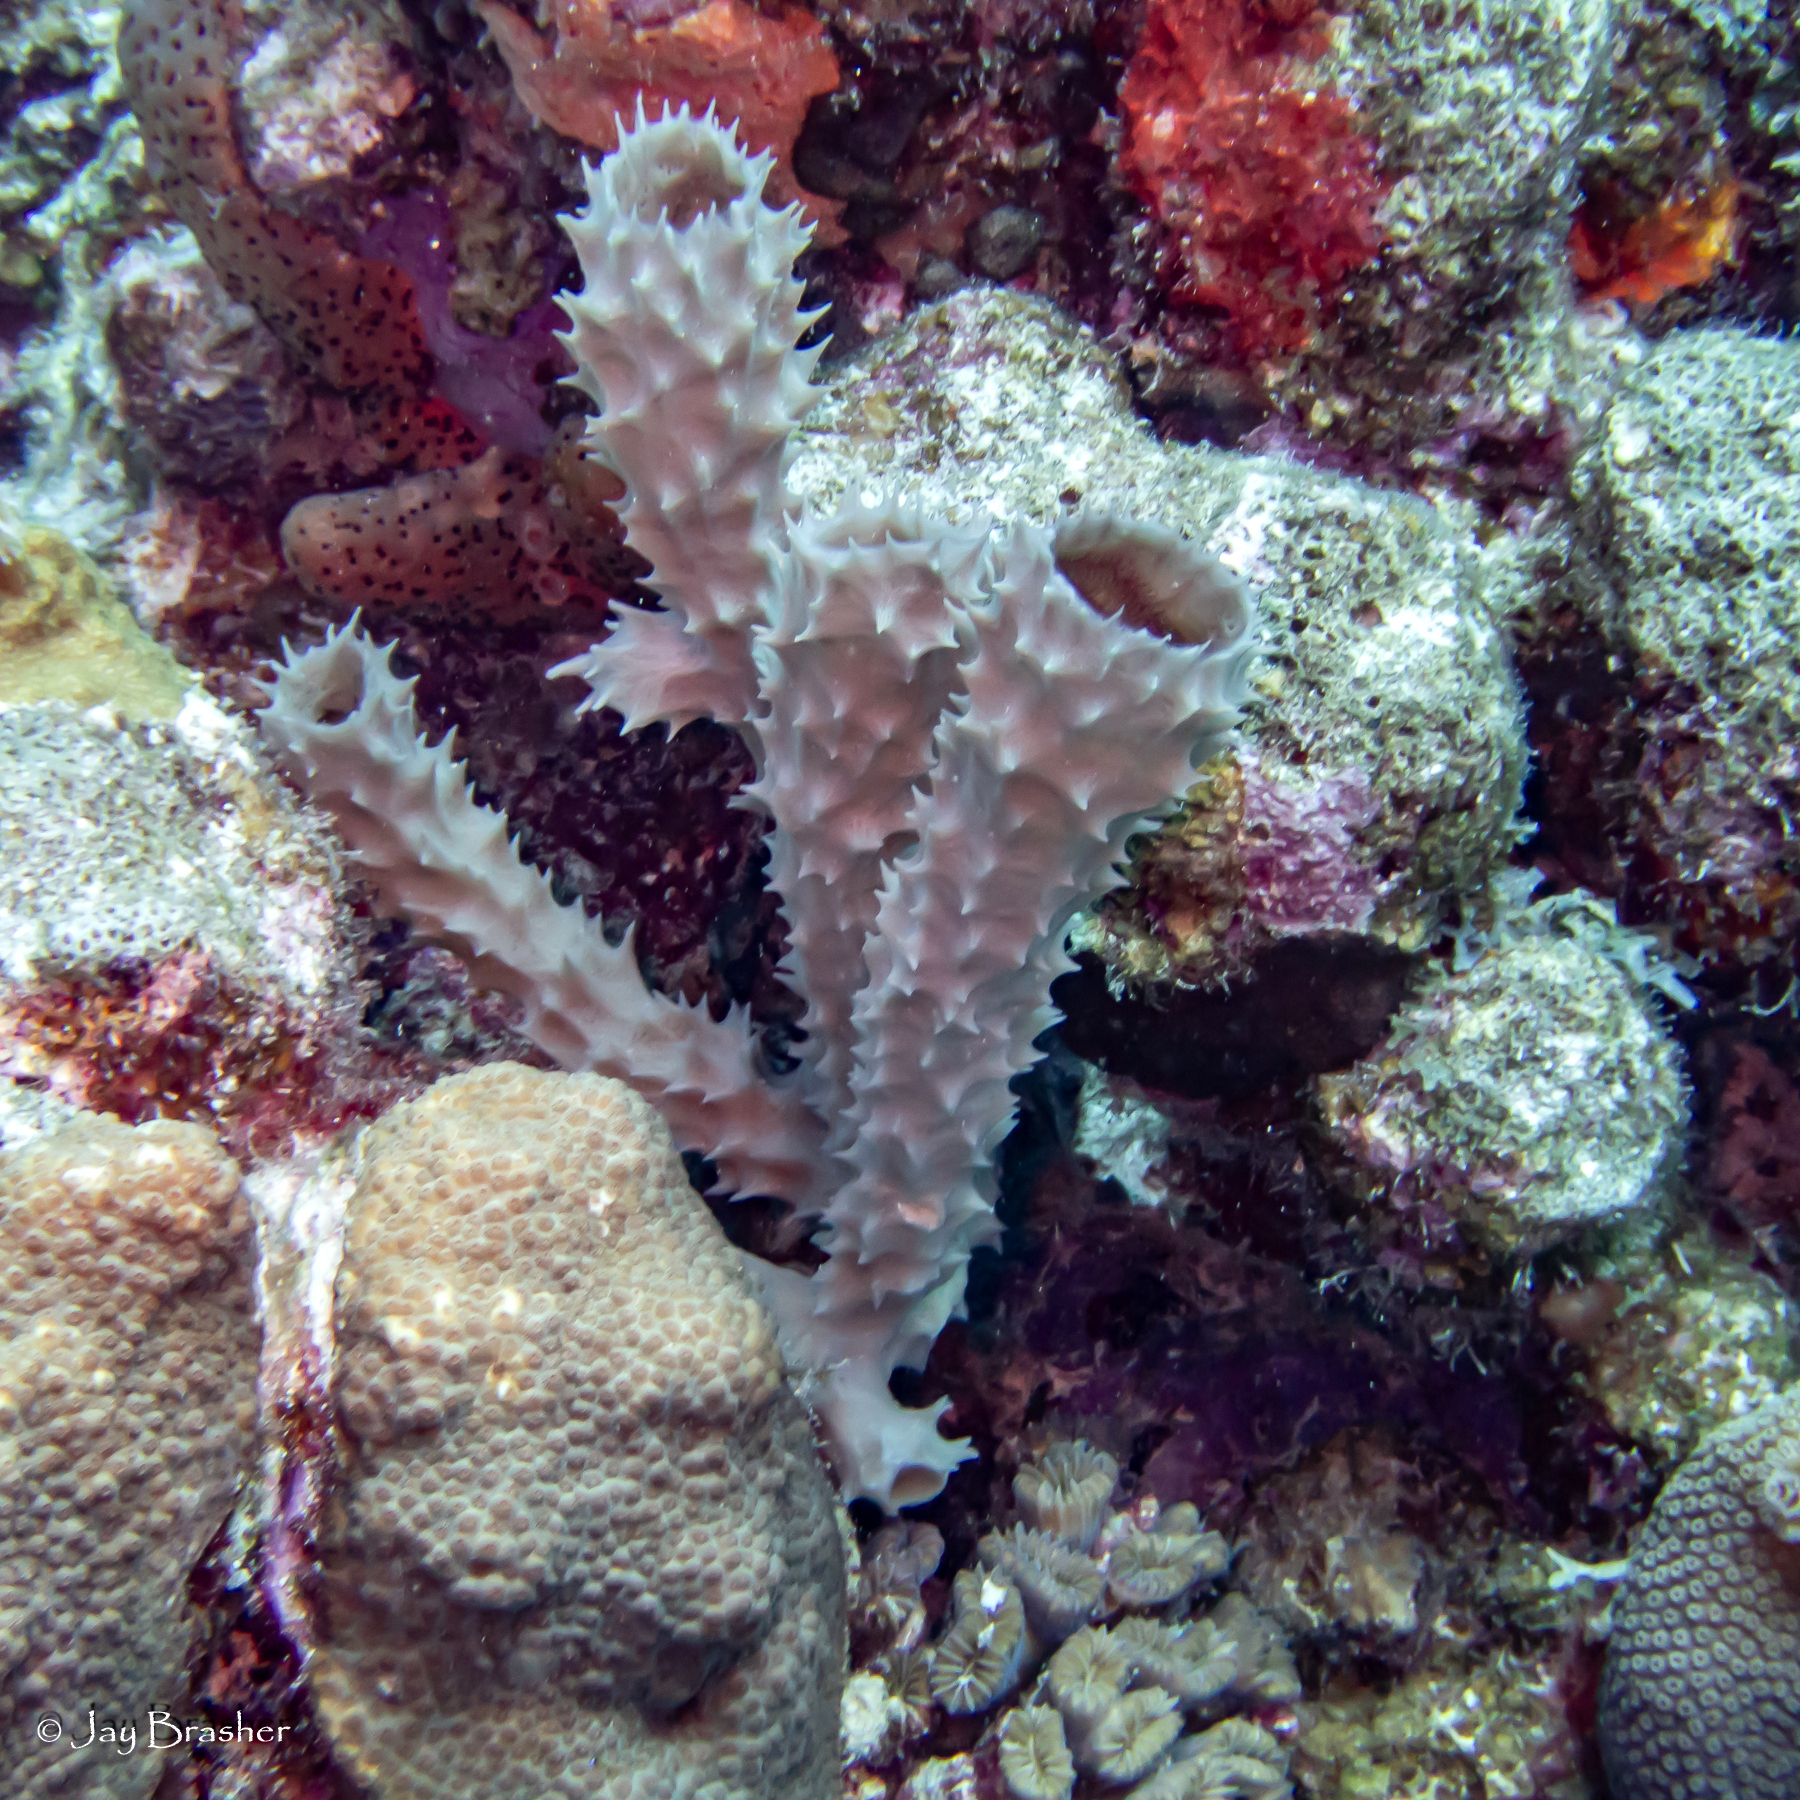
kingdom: Animalia
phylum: Porifera
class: Demospongiae
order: Haplosclerida
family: Callyspongiidae
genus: Callyspongia
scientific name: Callyspongia aculeata
